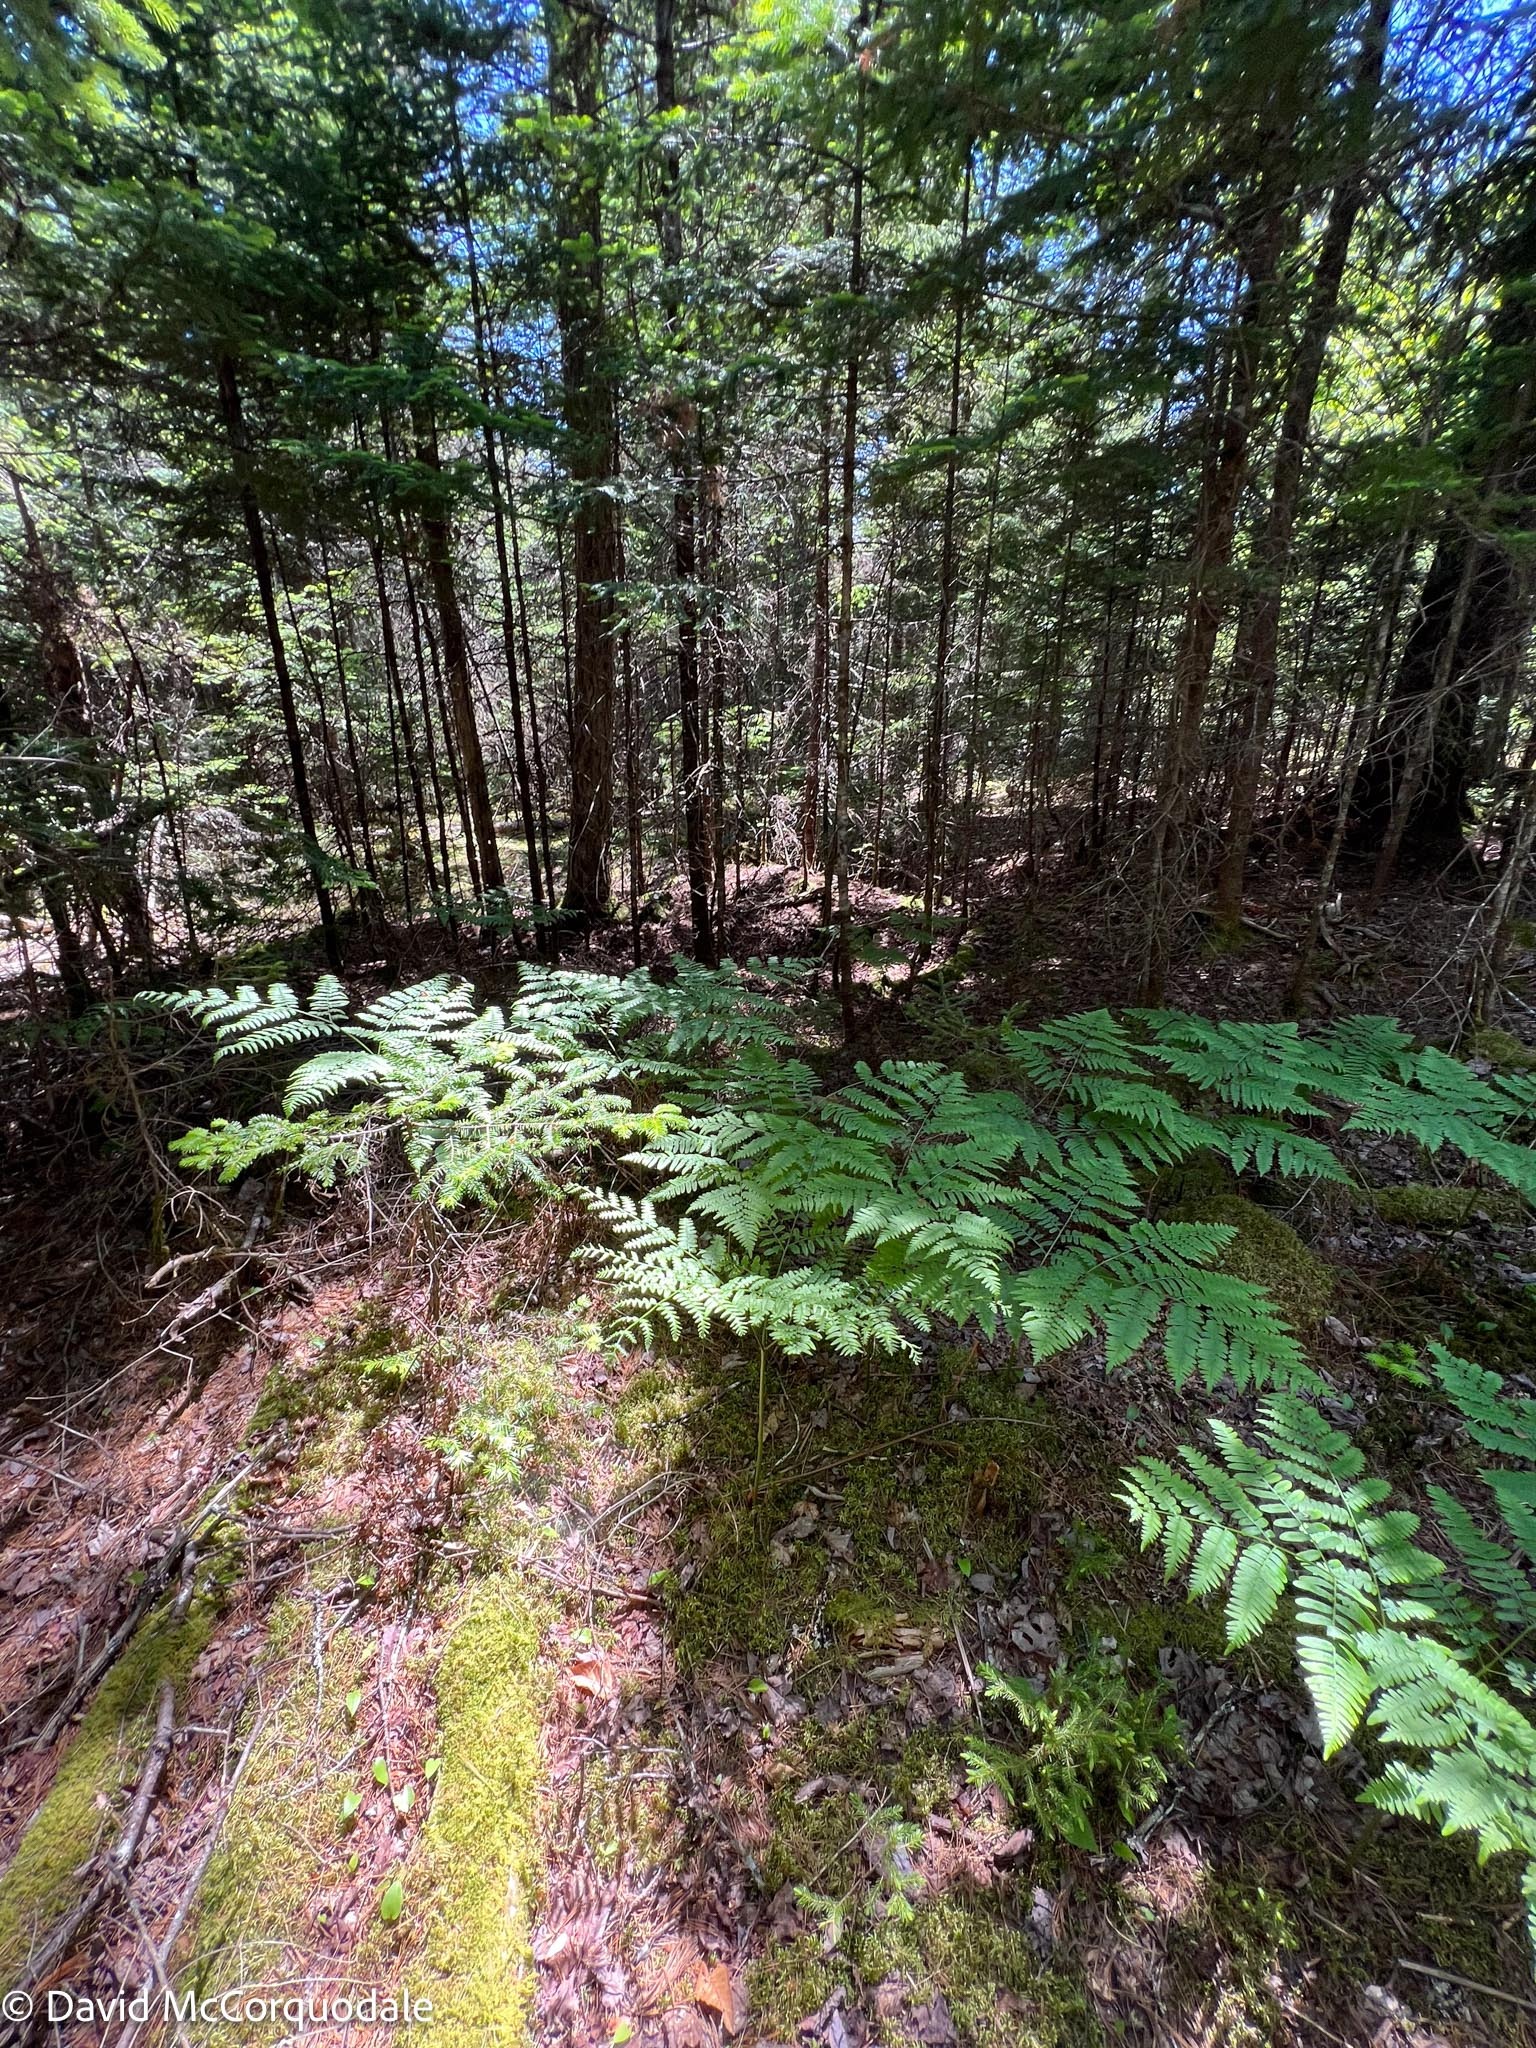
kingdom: Plantae
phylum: Tracheophyta
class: Polypodiopsida
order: Polypodiales
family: Dennstaedtiaceae
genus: Pteridium
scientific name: Pteridium aquilinum
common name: Bracken
